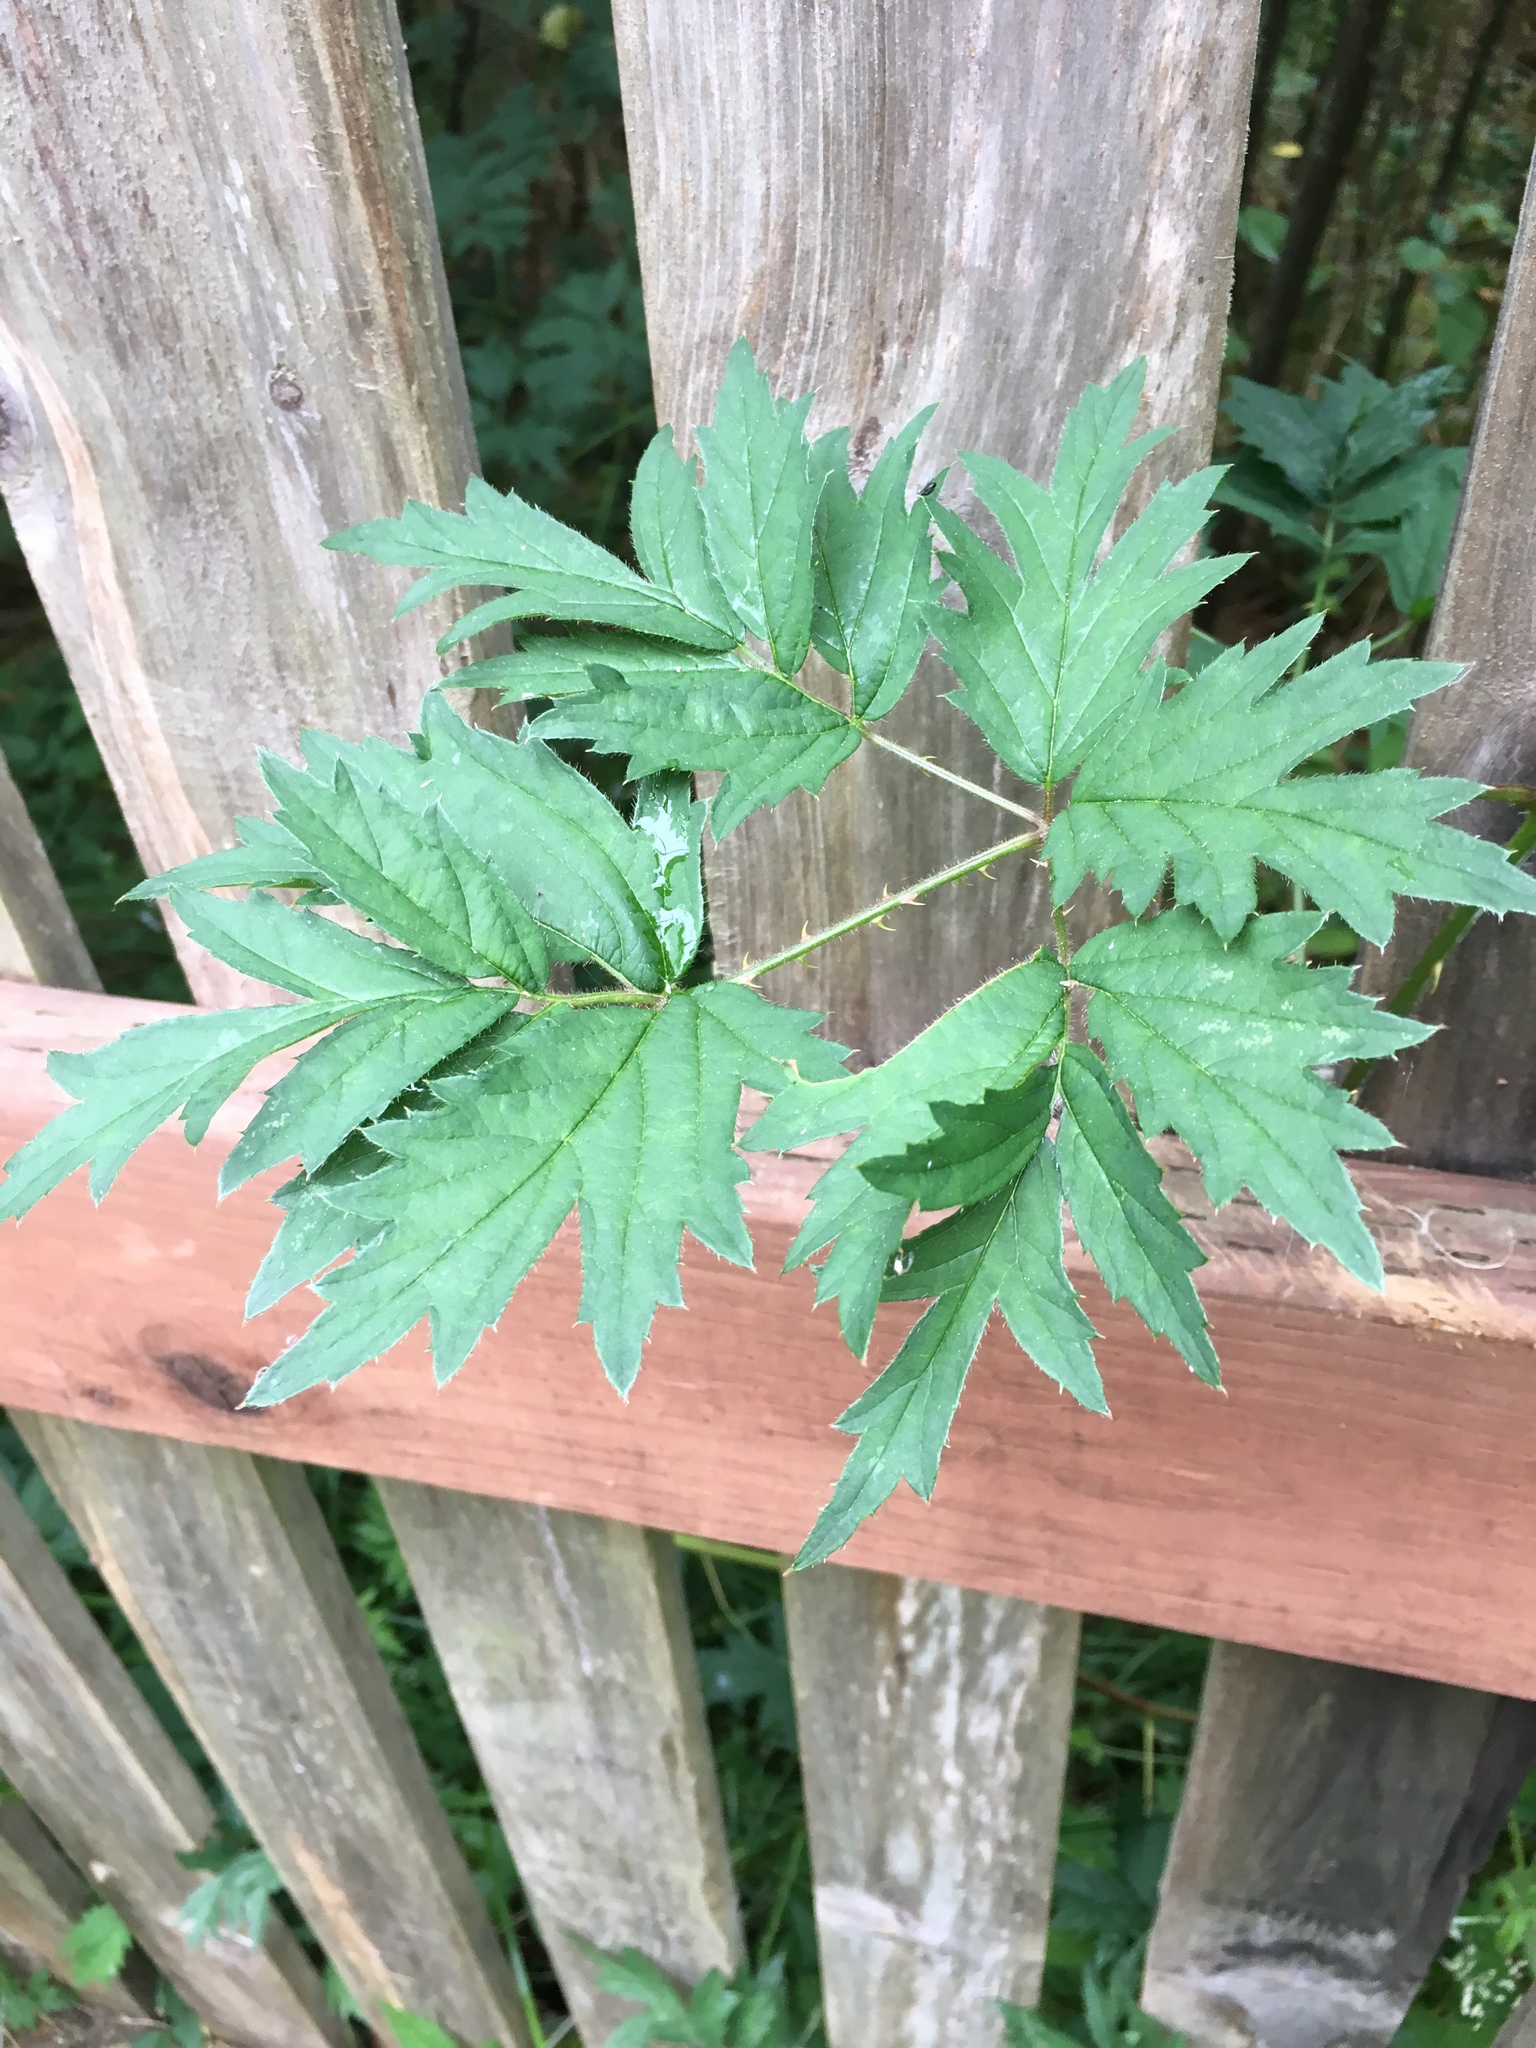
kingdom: Plantae
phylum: Tracheophyta
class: Magnoliopsida
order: Rosales
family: Rosaceae
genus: Rubus
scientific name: Rubus laciniatus
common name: Evergreen blackberry
